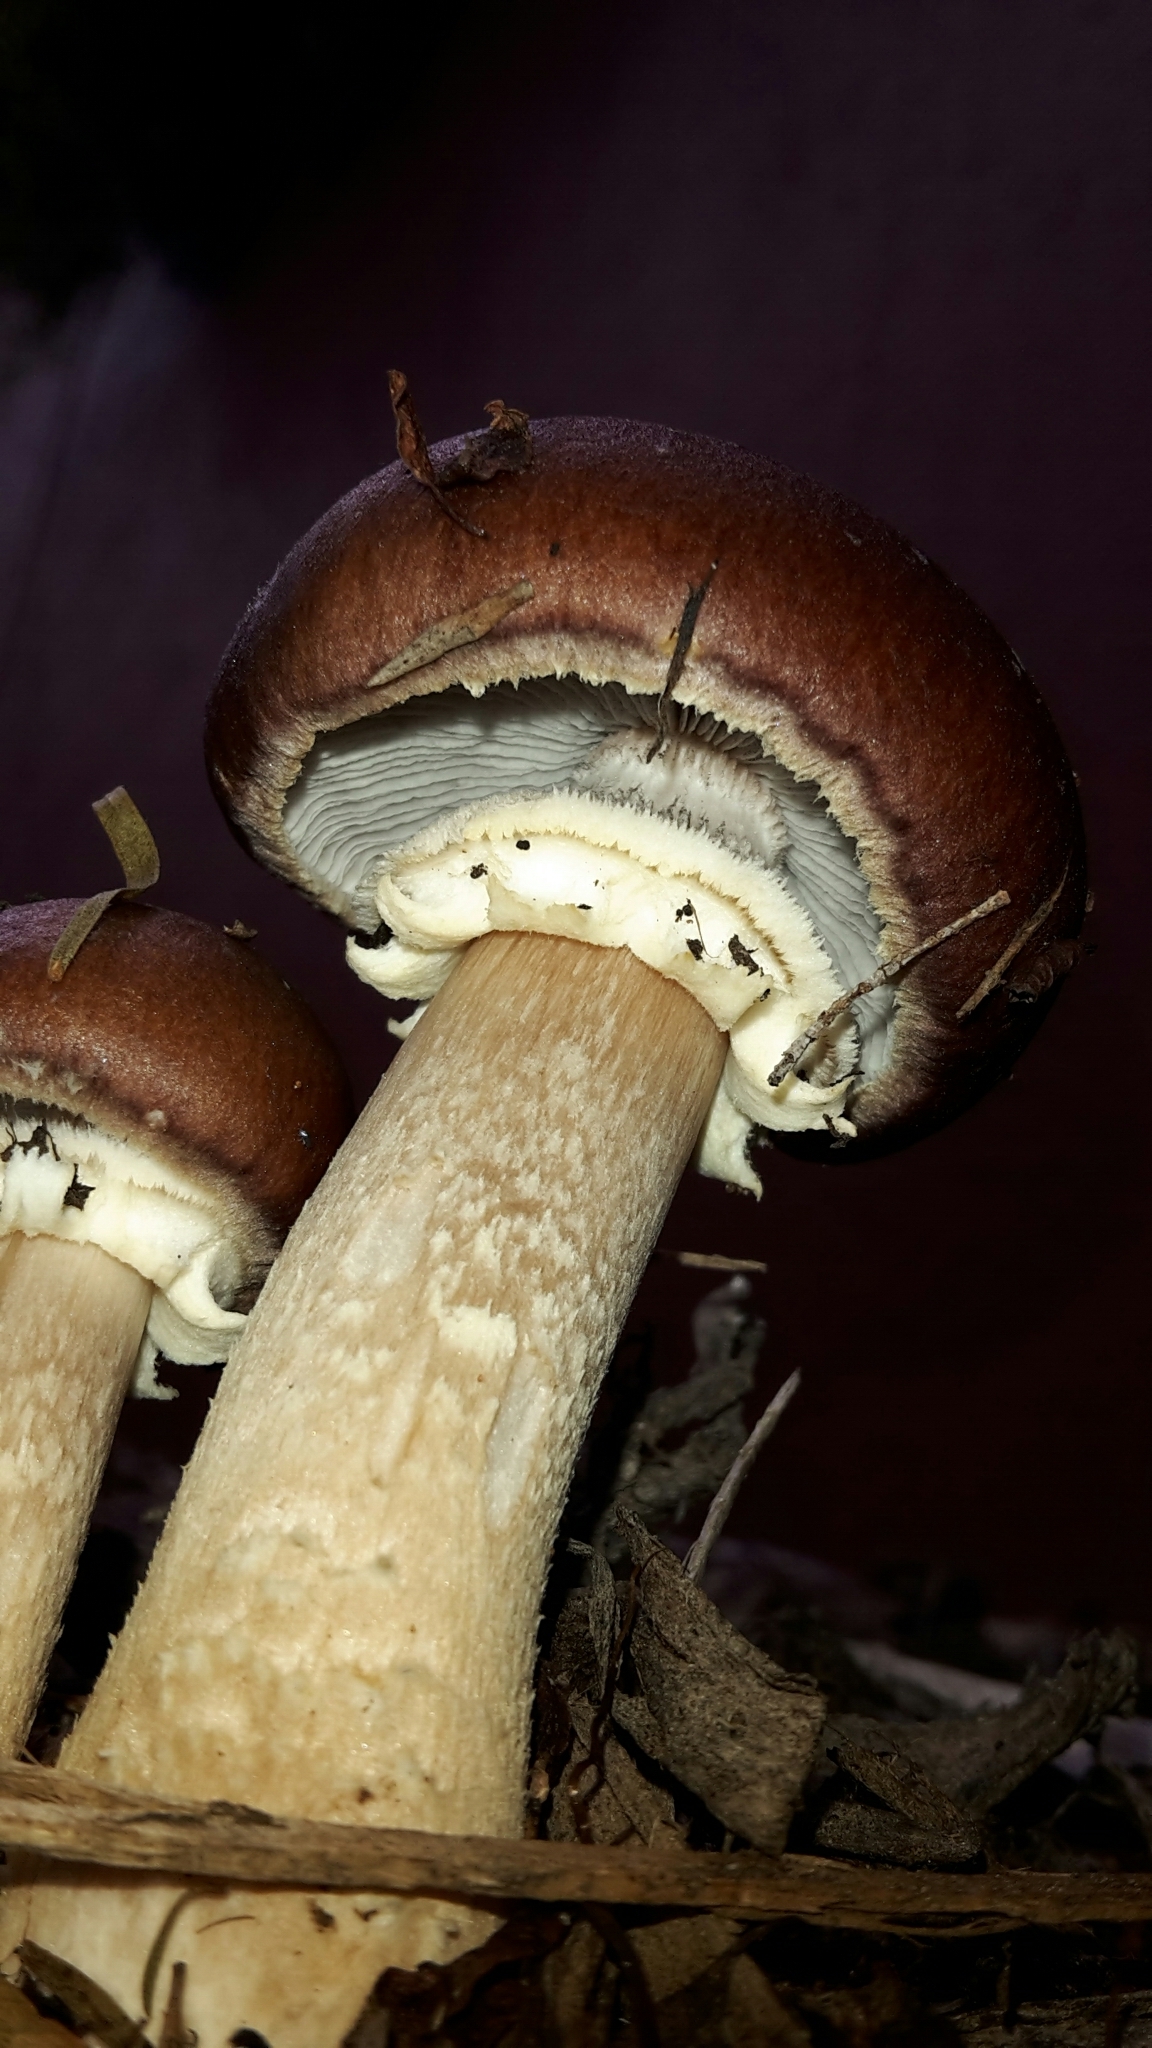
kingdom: Fungi
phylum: Basidiomycota
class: Agaricomycetes
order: Agaricales
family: Strophariaceae
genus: Stropharia
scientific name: Stropharia rugosoannulata
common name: Wine roundhead
